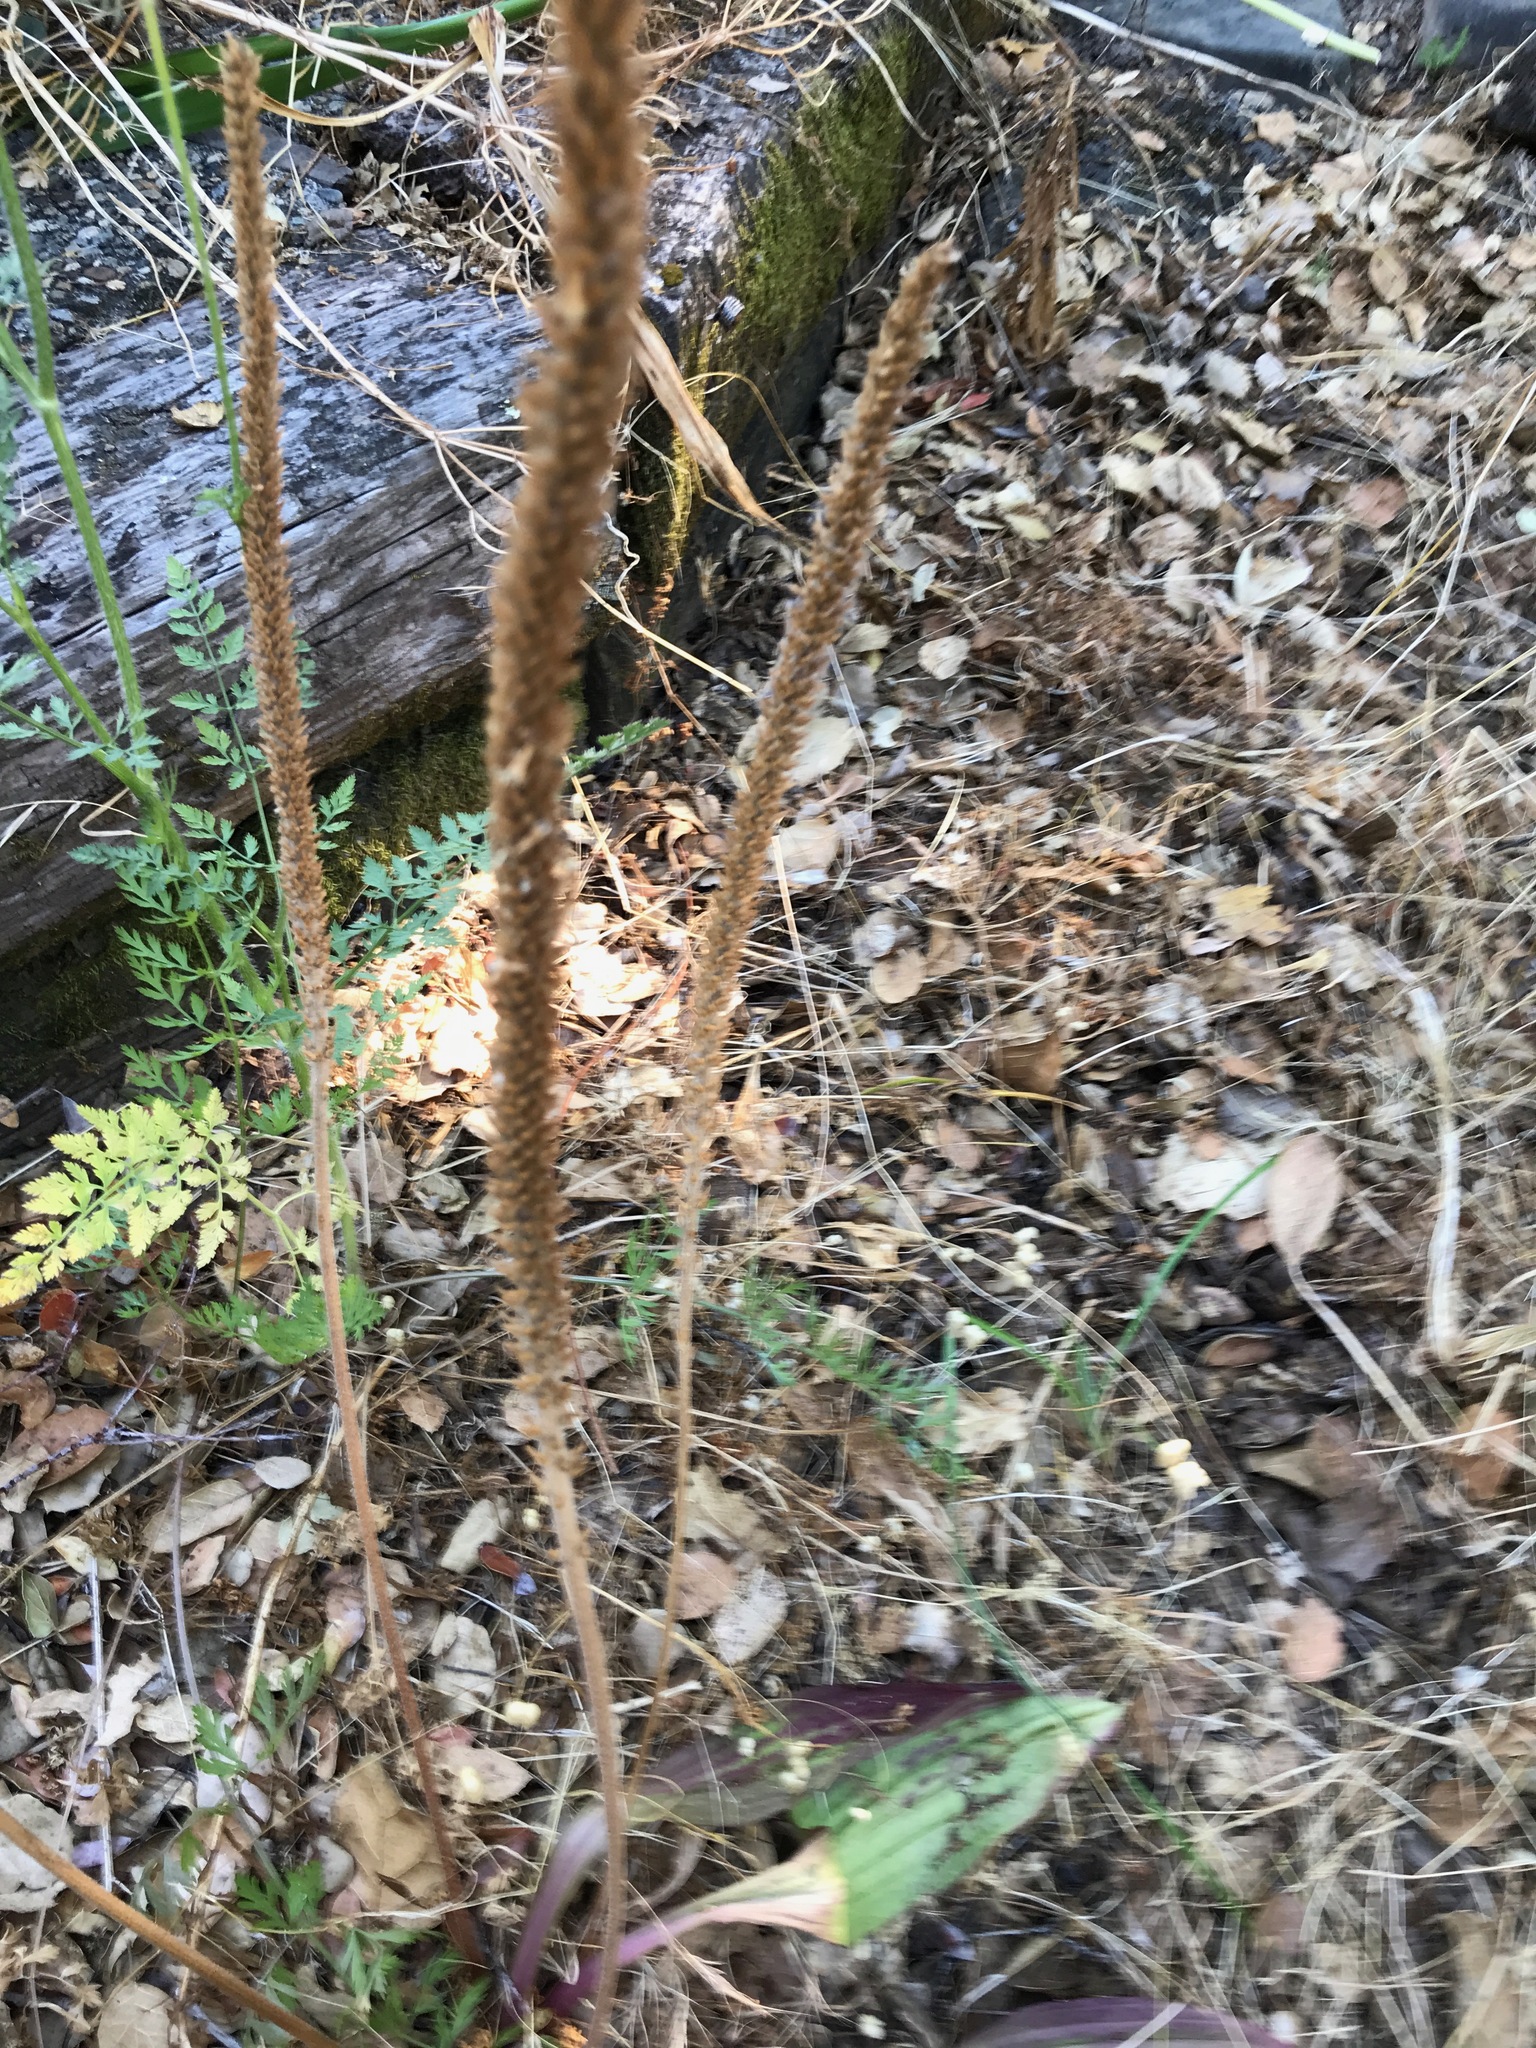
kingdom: Plantae
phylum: Tracheophyta
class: Magnoliopsida
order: Lamiales
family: Plantaginaceae
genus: Plantago
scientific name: Plantago lanceolata
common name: Ribwort plantain
